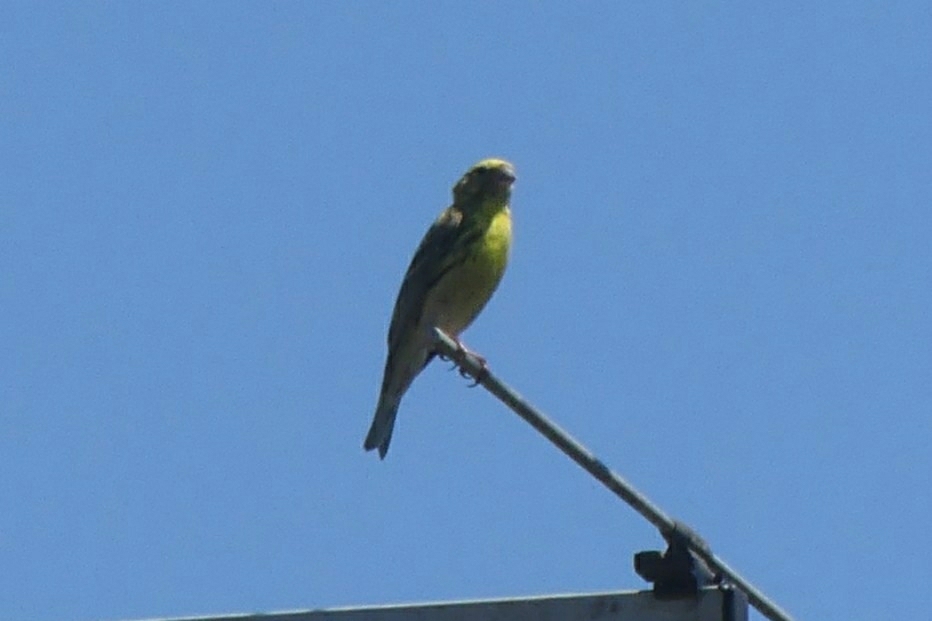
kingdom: Animalia
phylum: Chordata
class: Aves
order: Passeriformes
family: Fringillidae
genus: Serinus
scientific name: Serinus serinus
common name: European serin
